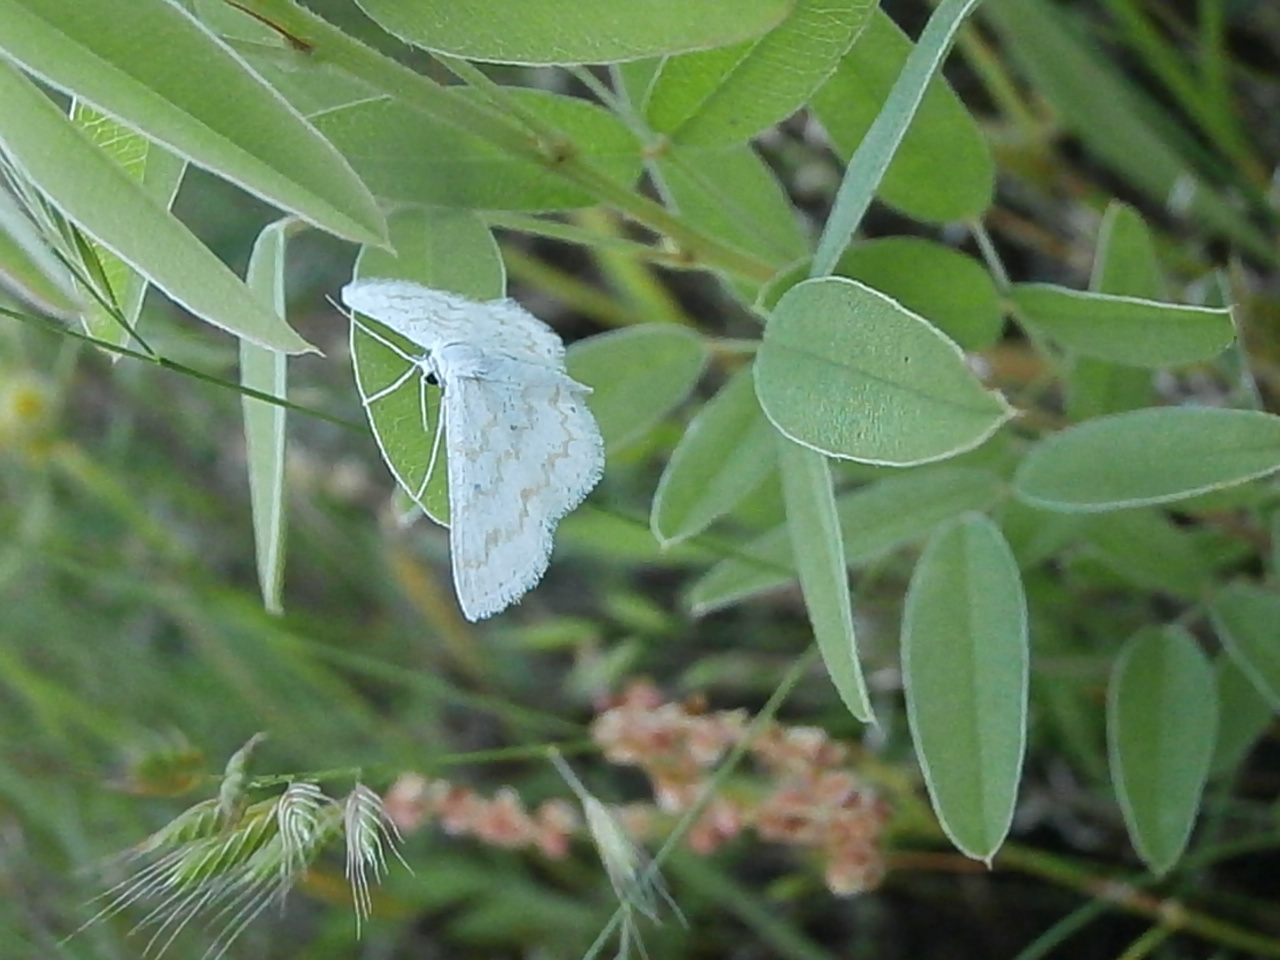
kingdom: Animalia
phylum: Arthropoda
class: Insecta
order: Lepidoptera
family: Geometridae
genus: Lobocleta
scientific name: Lobocleta peralbata
